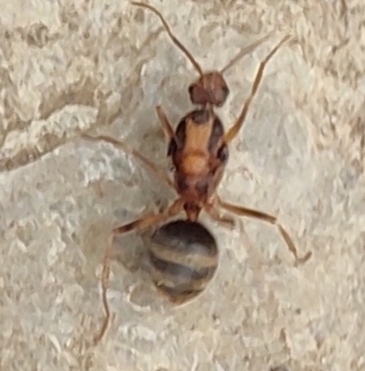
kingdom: Animalia
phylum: Arthropoda
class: Insecta
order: Hymenoptera
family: Formicidae
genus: Anoplolepis
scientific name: Anoplolepis gracilipes
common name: Ant
